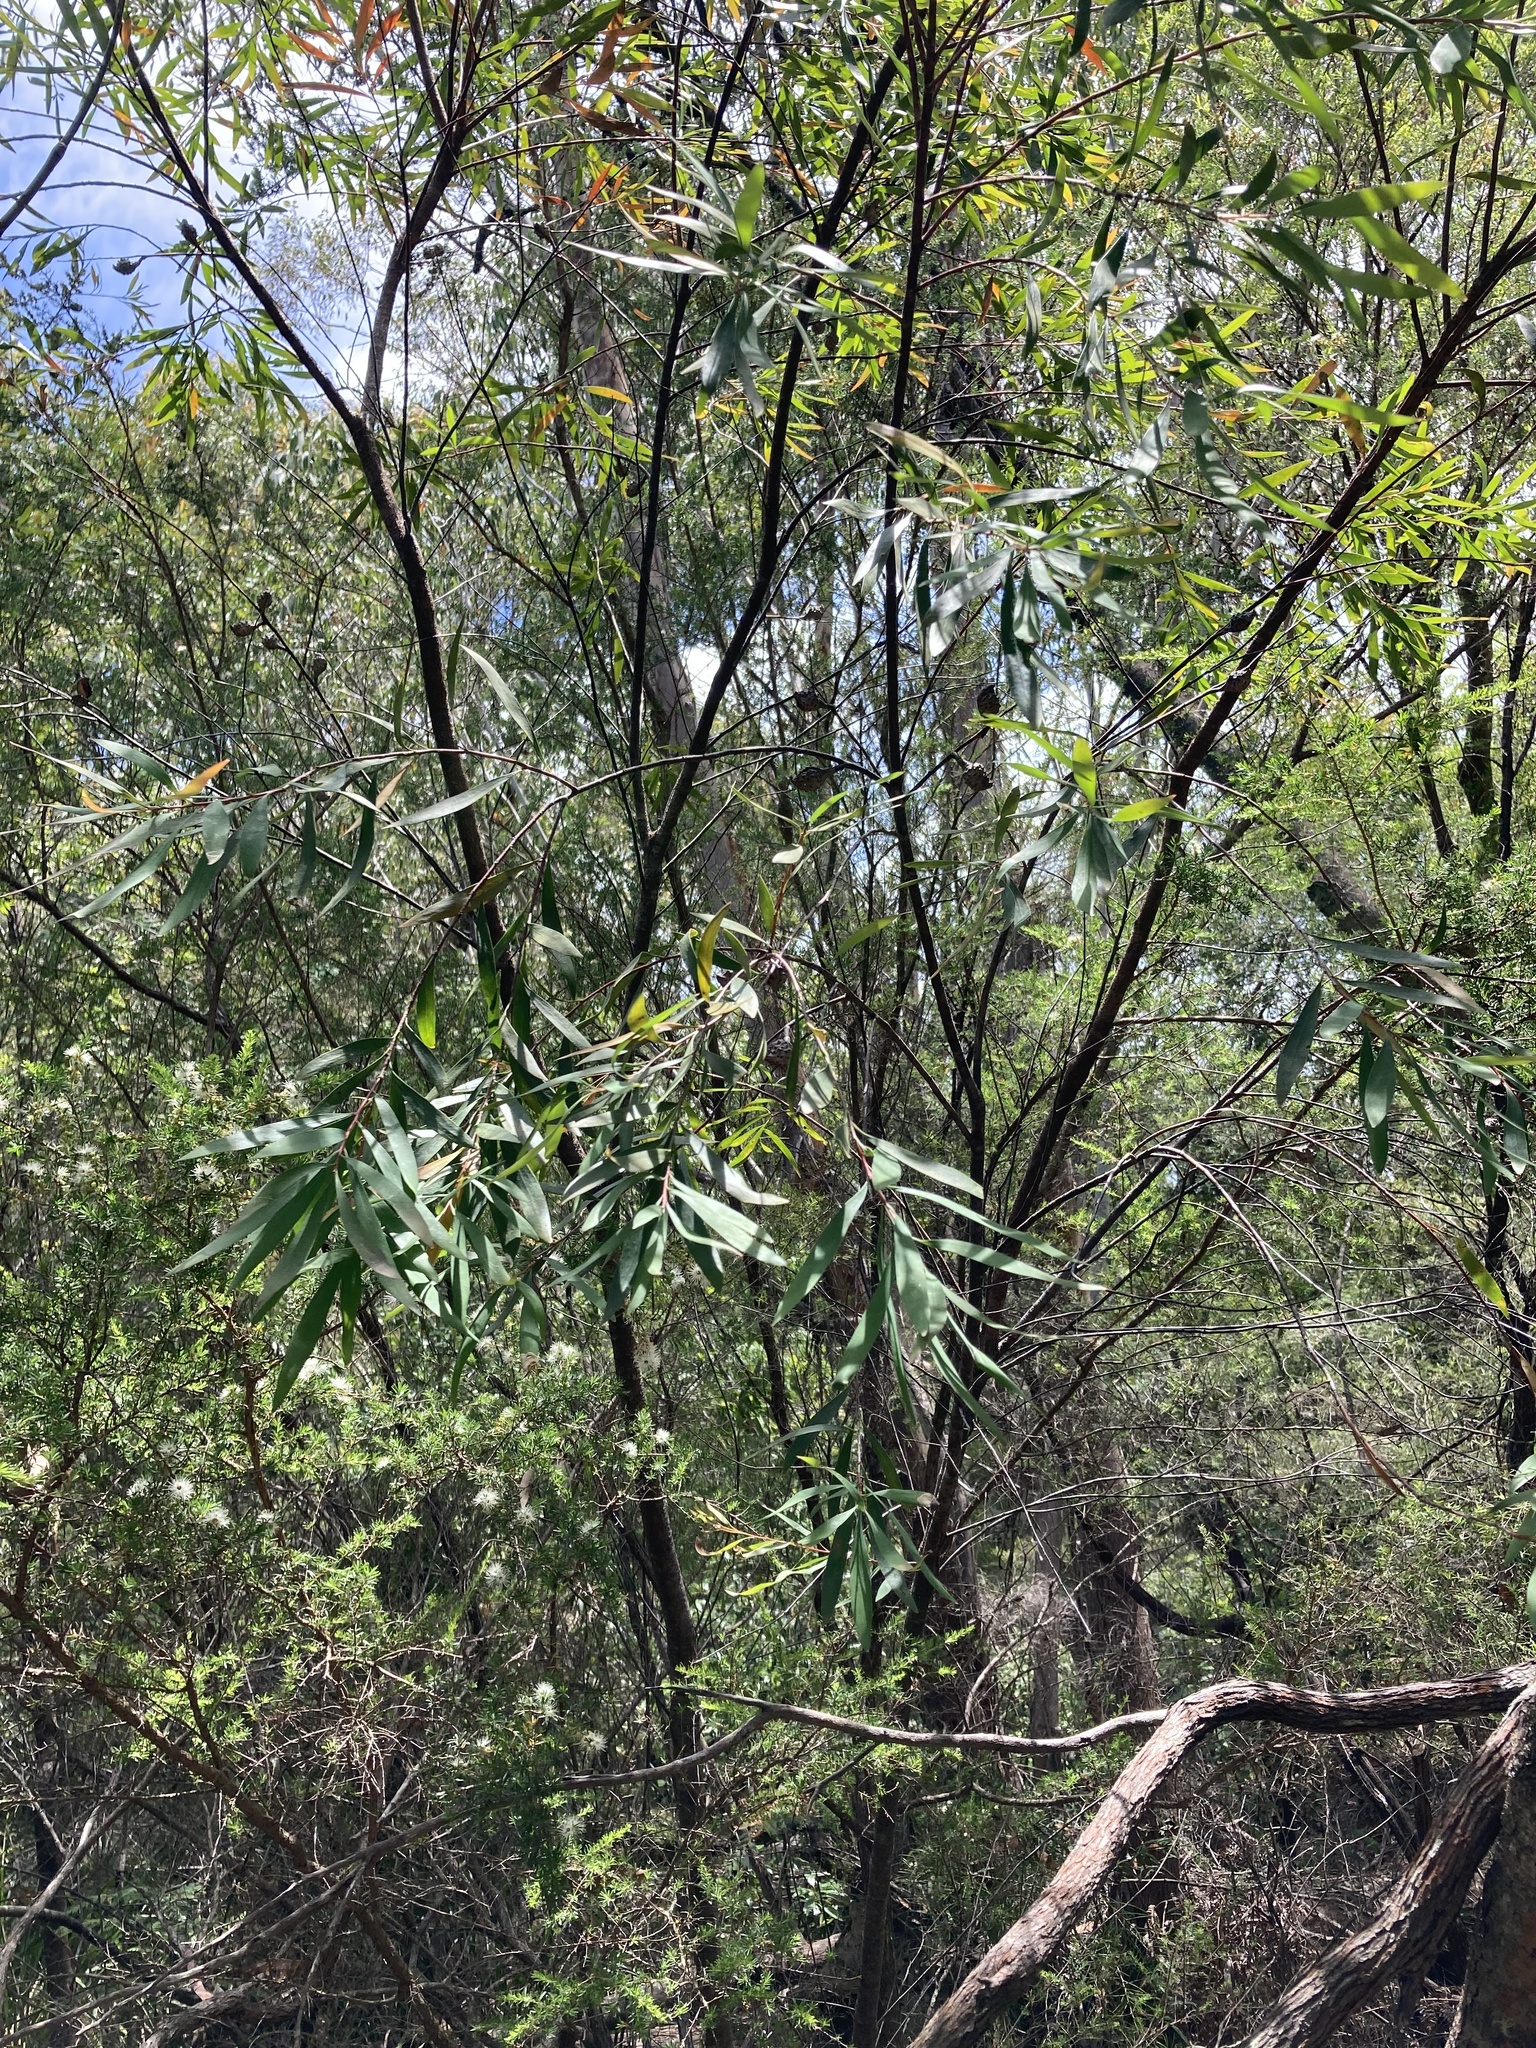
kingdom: Plantae
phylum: Tracheophyta
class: Magnoliopsida
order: Proteales
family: Proteaceae
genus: Hakea
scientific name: Hakea salicifolia
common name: Willow hakea
